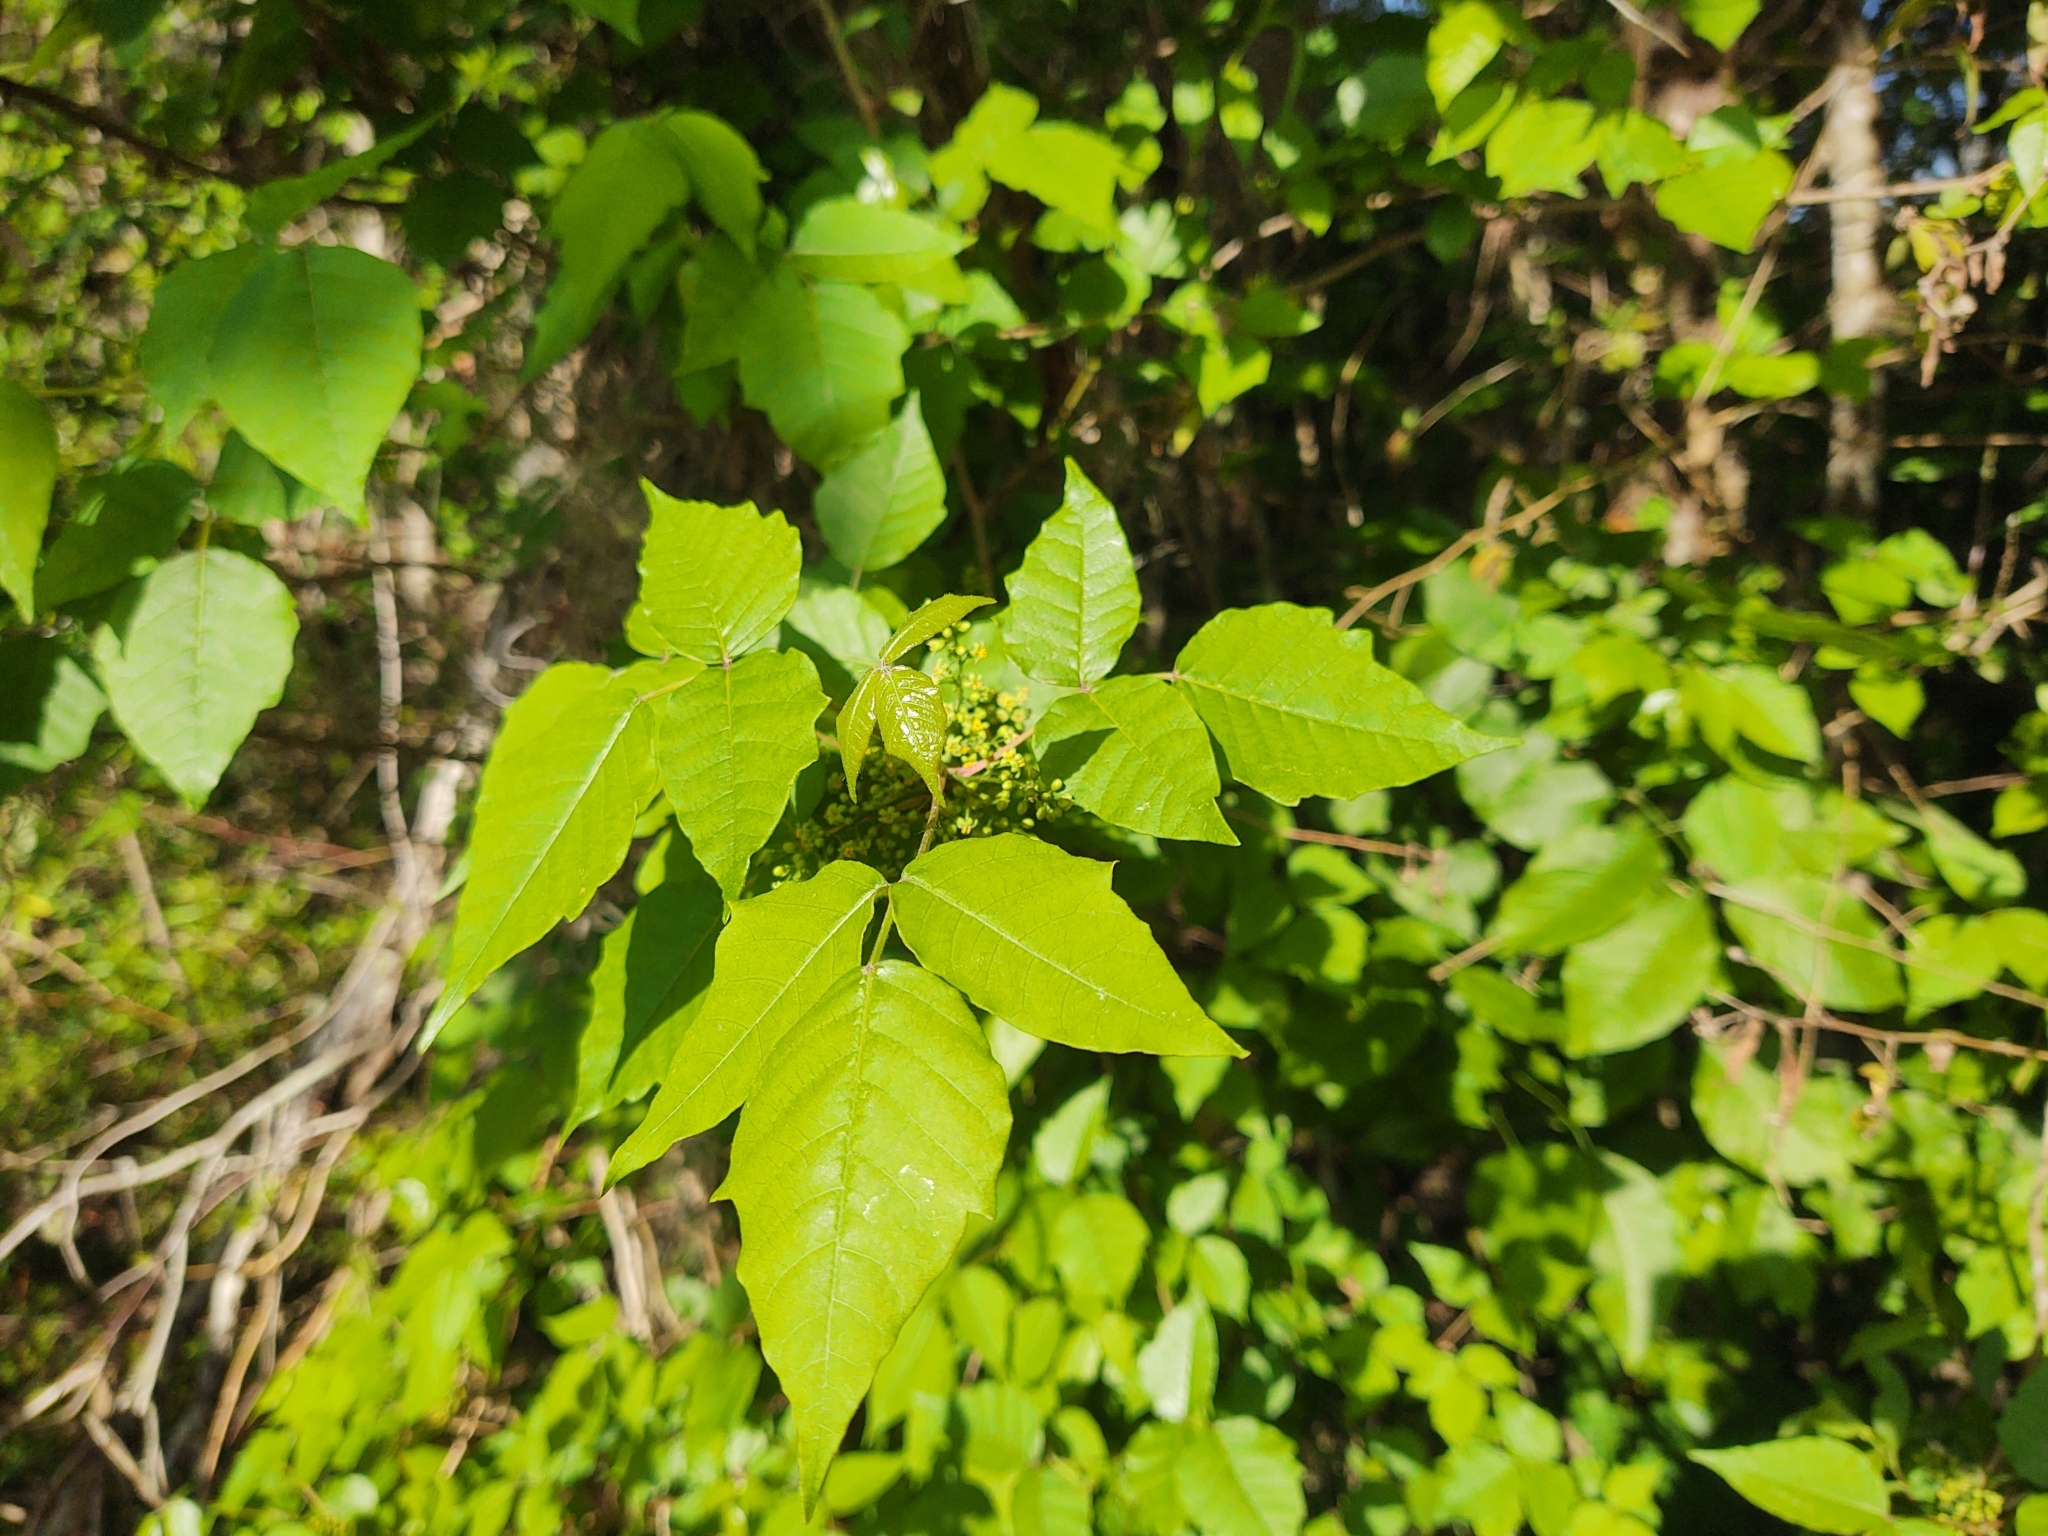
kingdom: Plantae
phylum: Tracheophyta
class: Magnoliopsida
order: Sapindales
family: Anacardiaceae
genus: Toxicodendron
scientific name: Toxicodendron radicans
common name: Poison ivy
